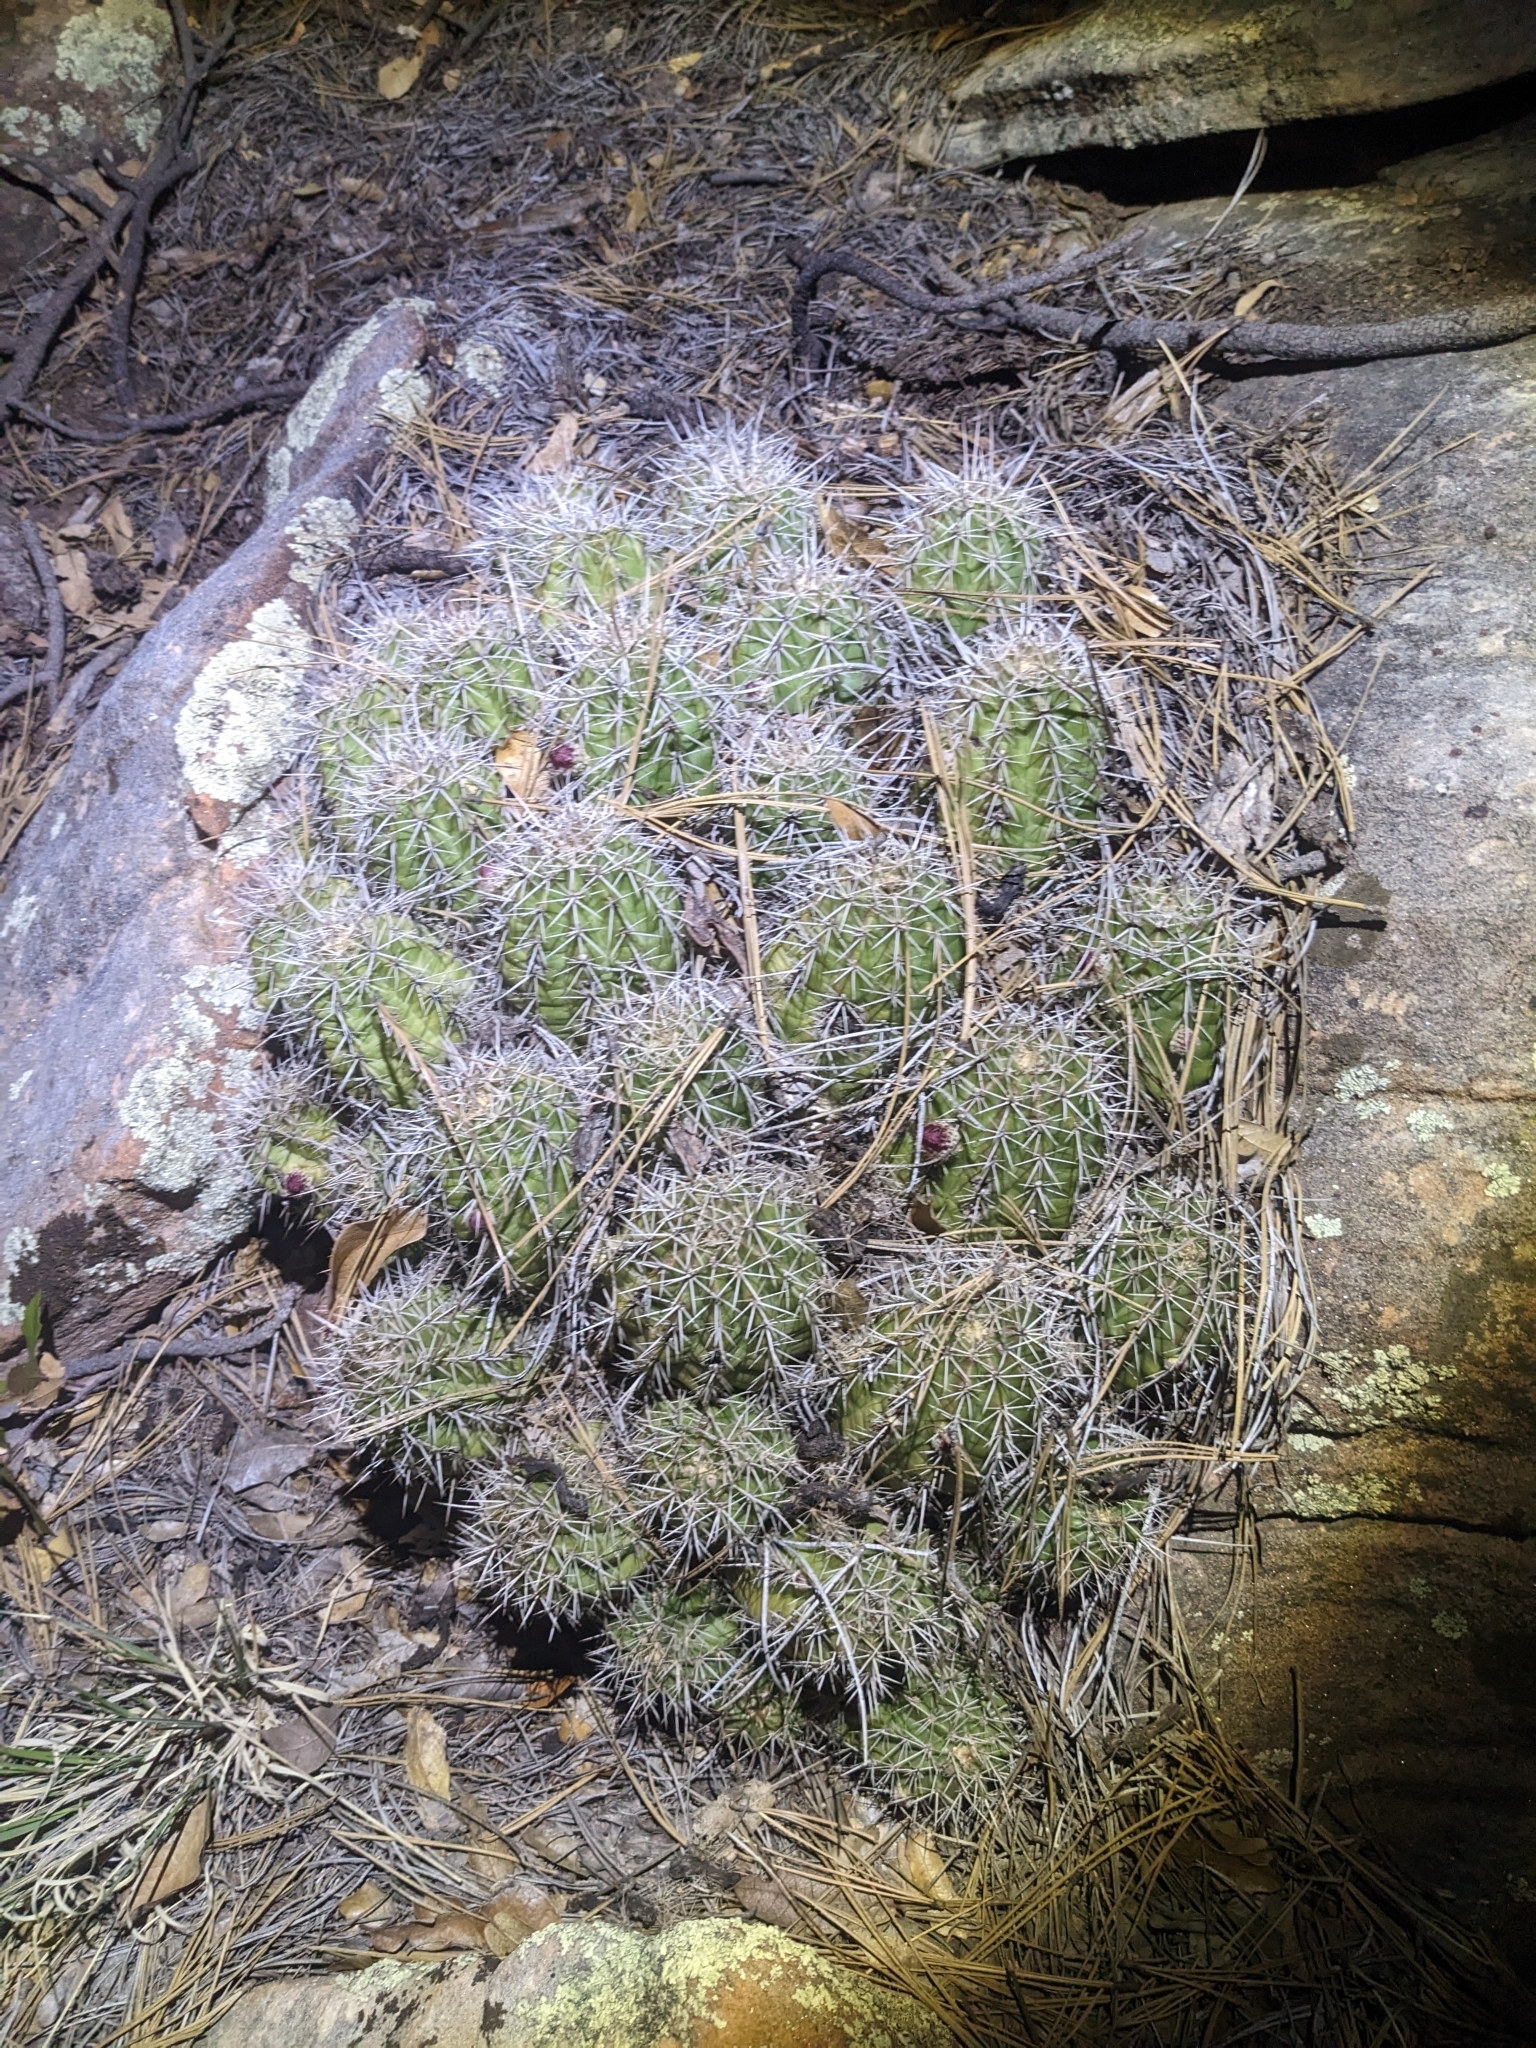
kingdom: Plantae
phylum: Tracheophyta
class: Magnoliopsida
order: Caryophyllales
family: Cactaceae
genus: Echinocereus
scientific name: Echinocereus bakeri
